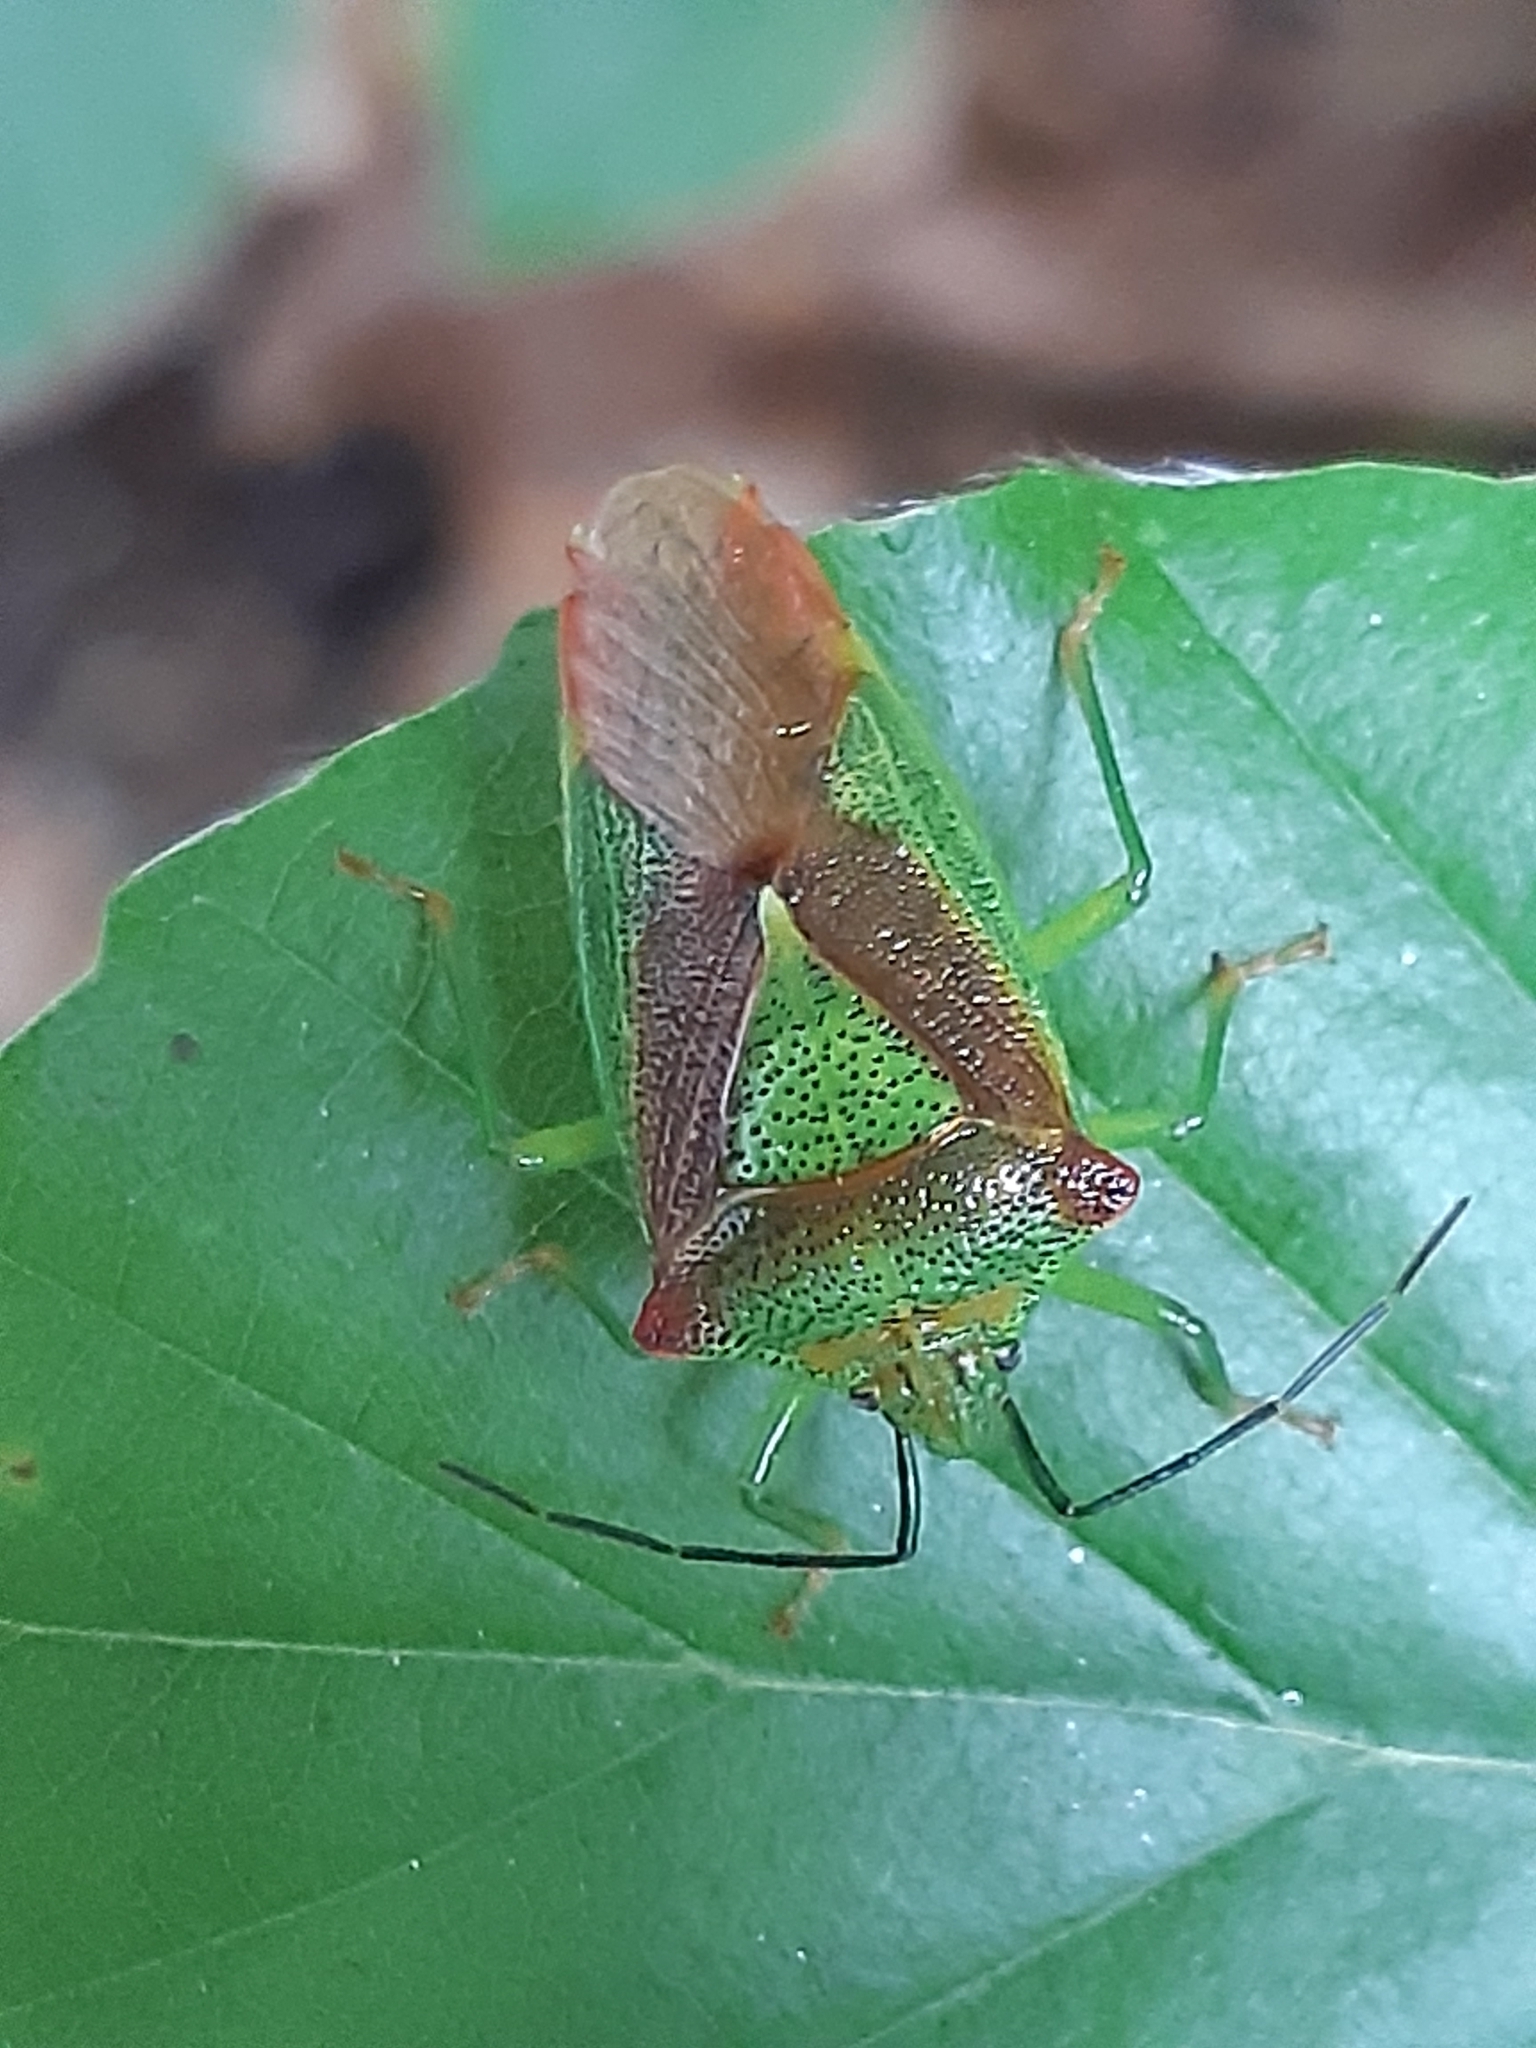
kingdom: Animalia
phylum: Arthropoda
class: Insecta
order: Hemiptera
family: Acanthosomatidae
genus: Acanthosoma
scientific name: Acanthosoma haemorrhoidale
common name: Hawthorn shieldbug
